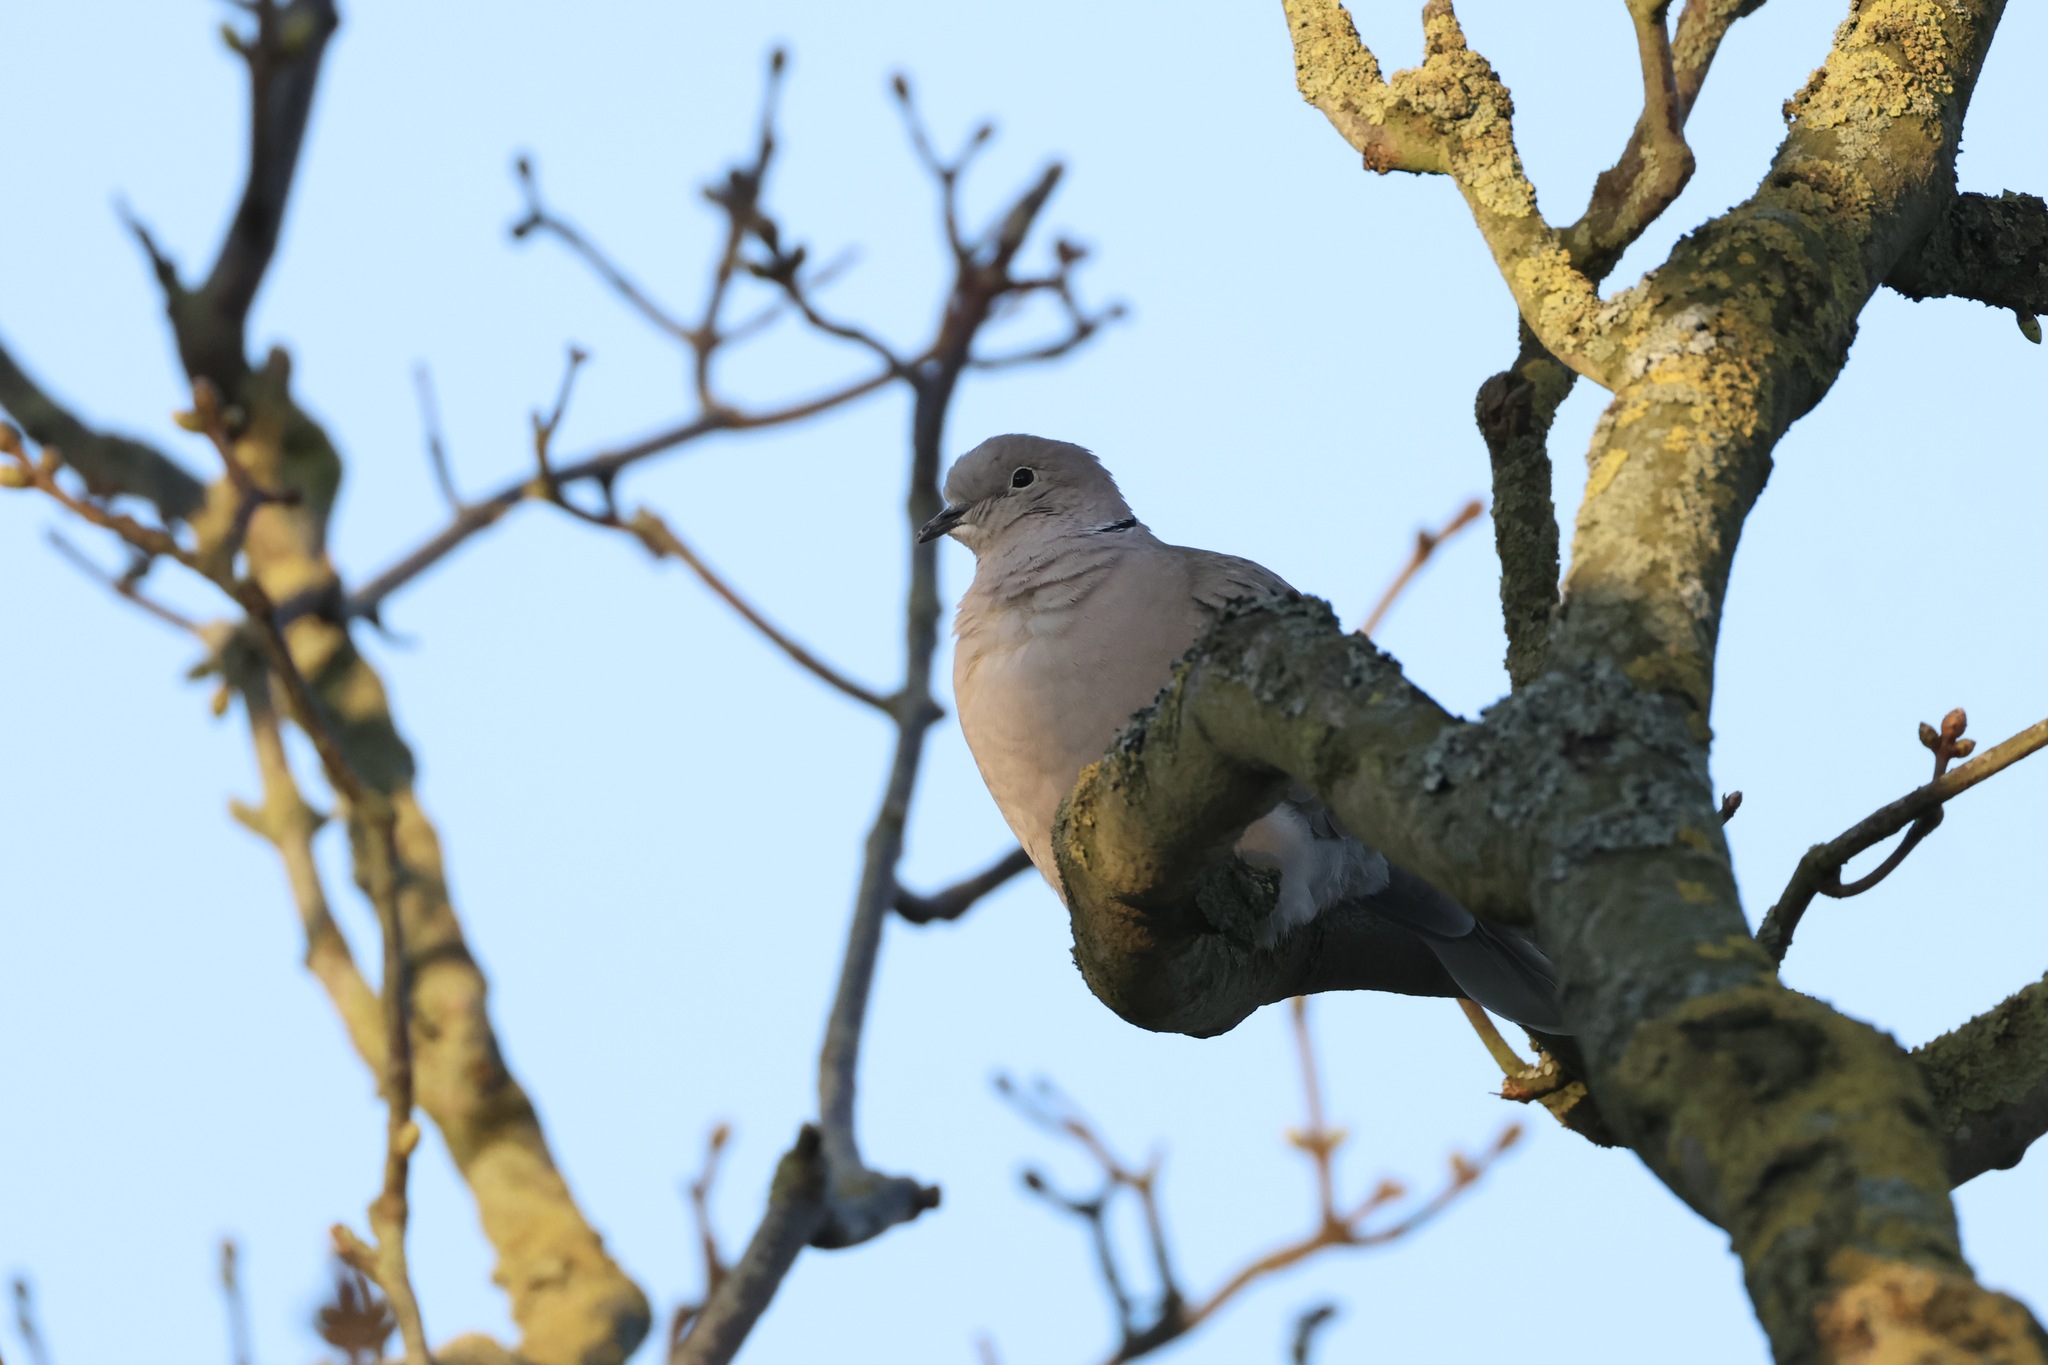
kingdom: Animalia
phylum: Chordata
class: Aves
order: Columbiformes
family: Columbidae
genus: Streptopelia
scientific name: Streptopelia decaocto
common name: Eurasian collared dove
